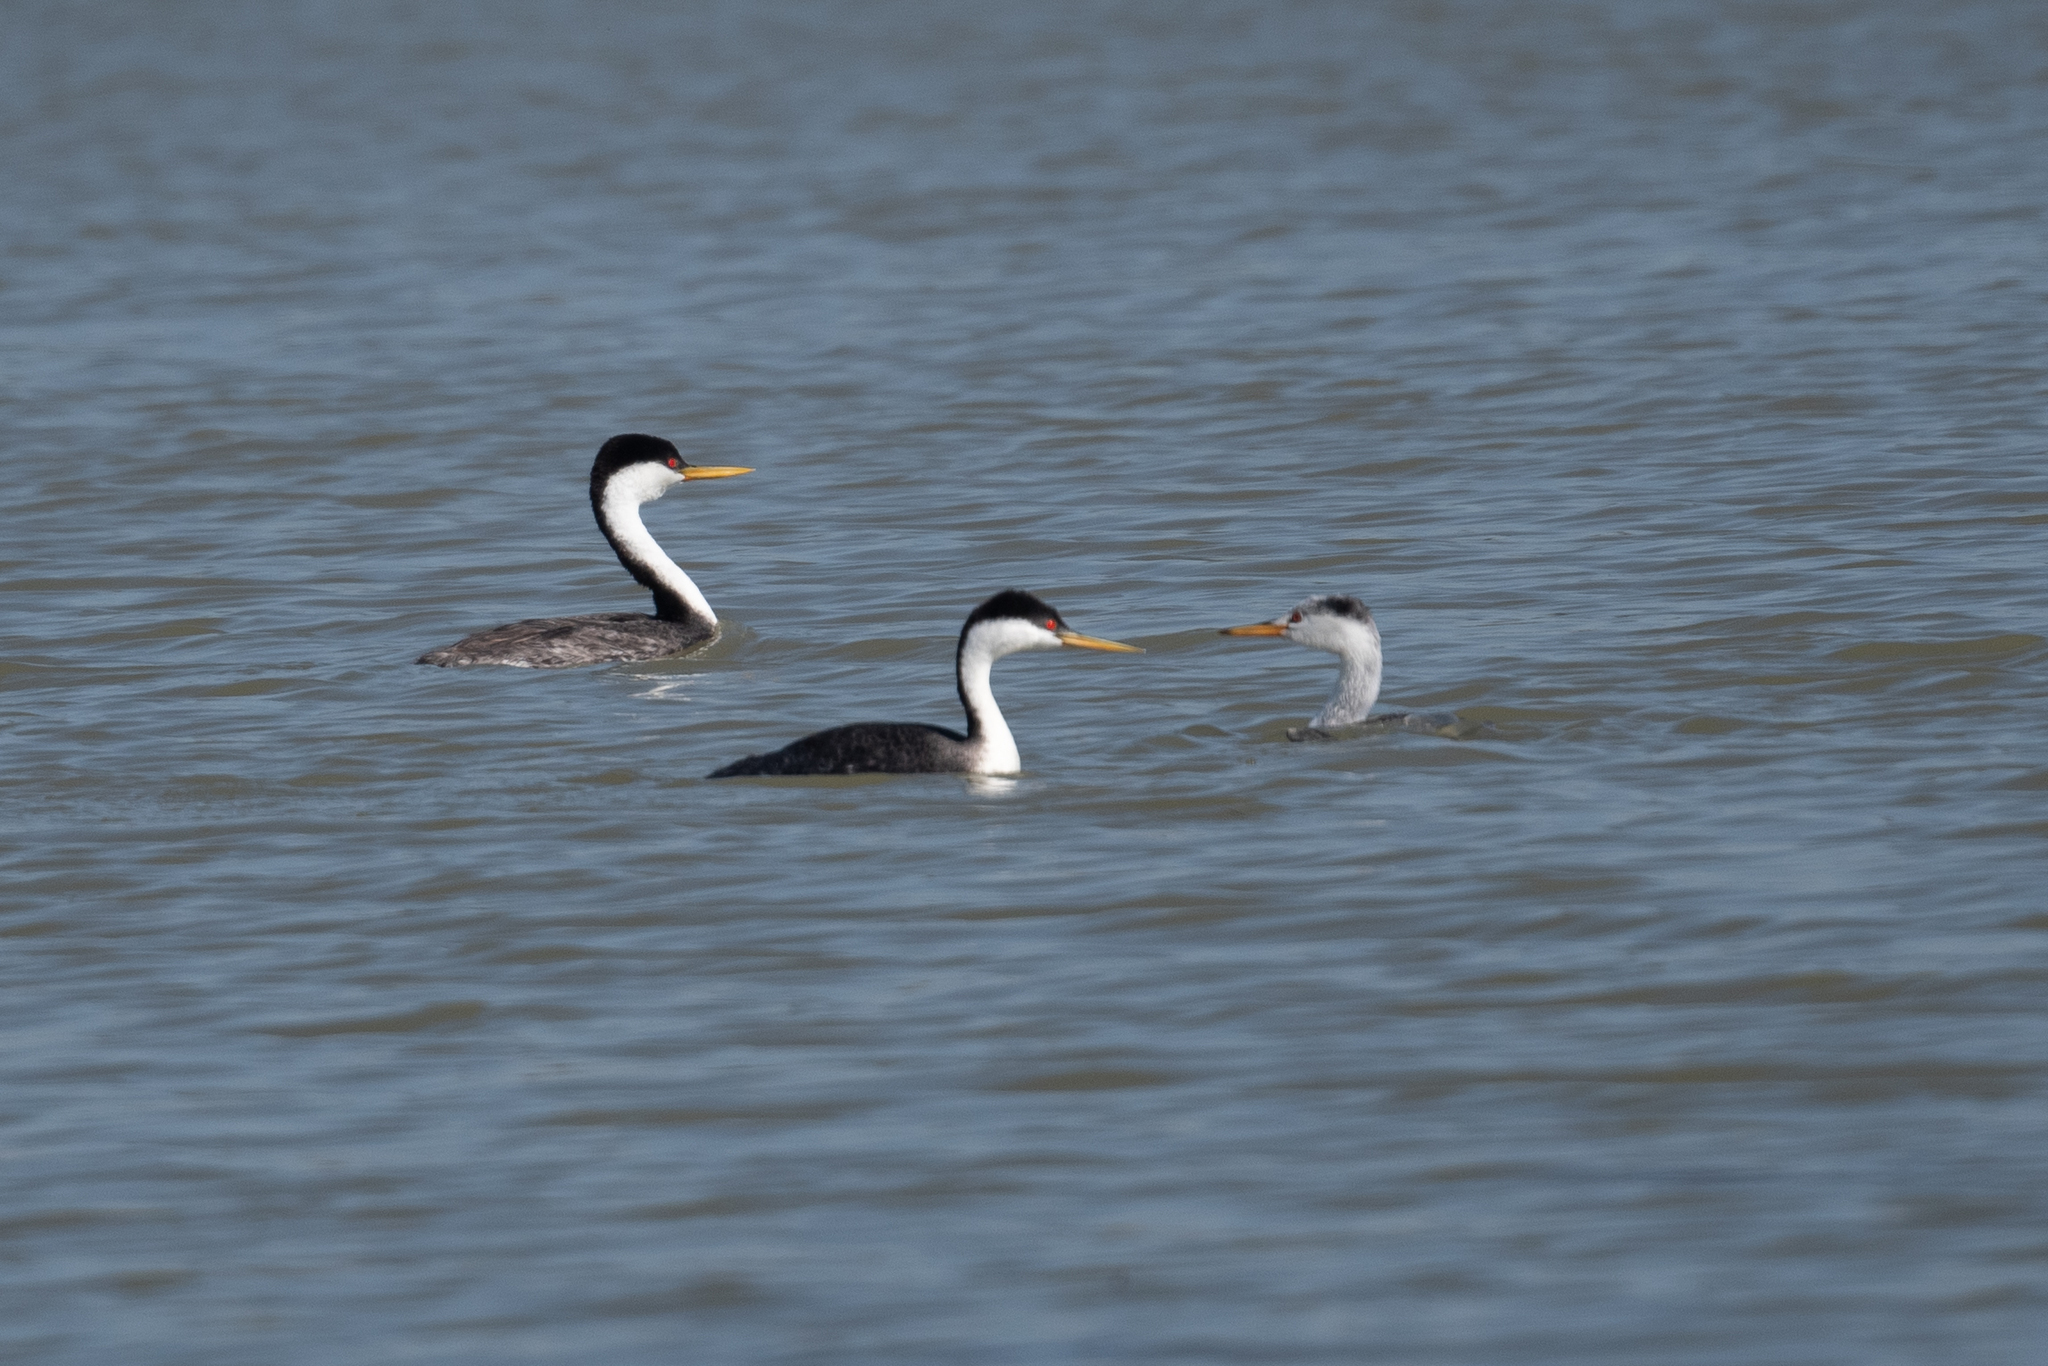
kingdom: Animalia
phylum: Chordata
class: Aves
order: Podicipediformes
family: Podicipedidae
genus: Aechmophorus
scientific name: Aechmophorus clarkii
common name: Clark's grebe
